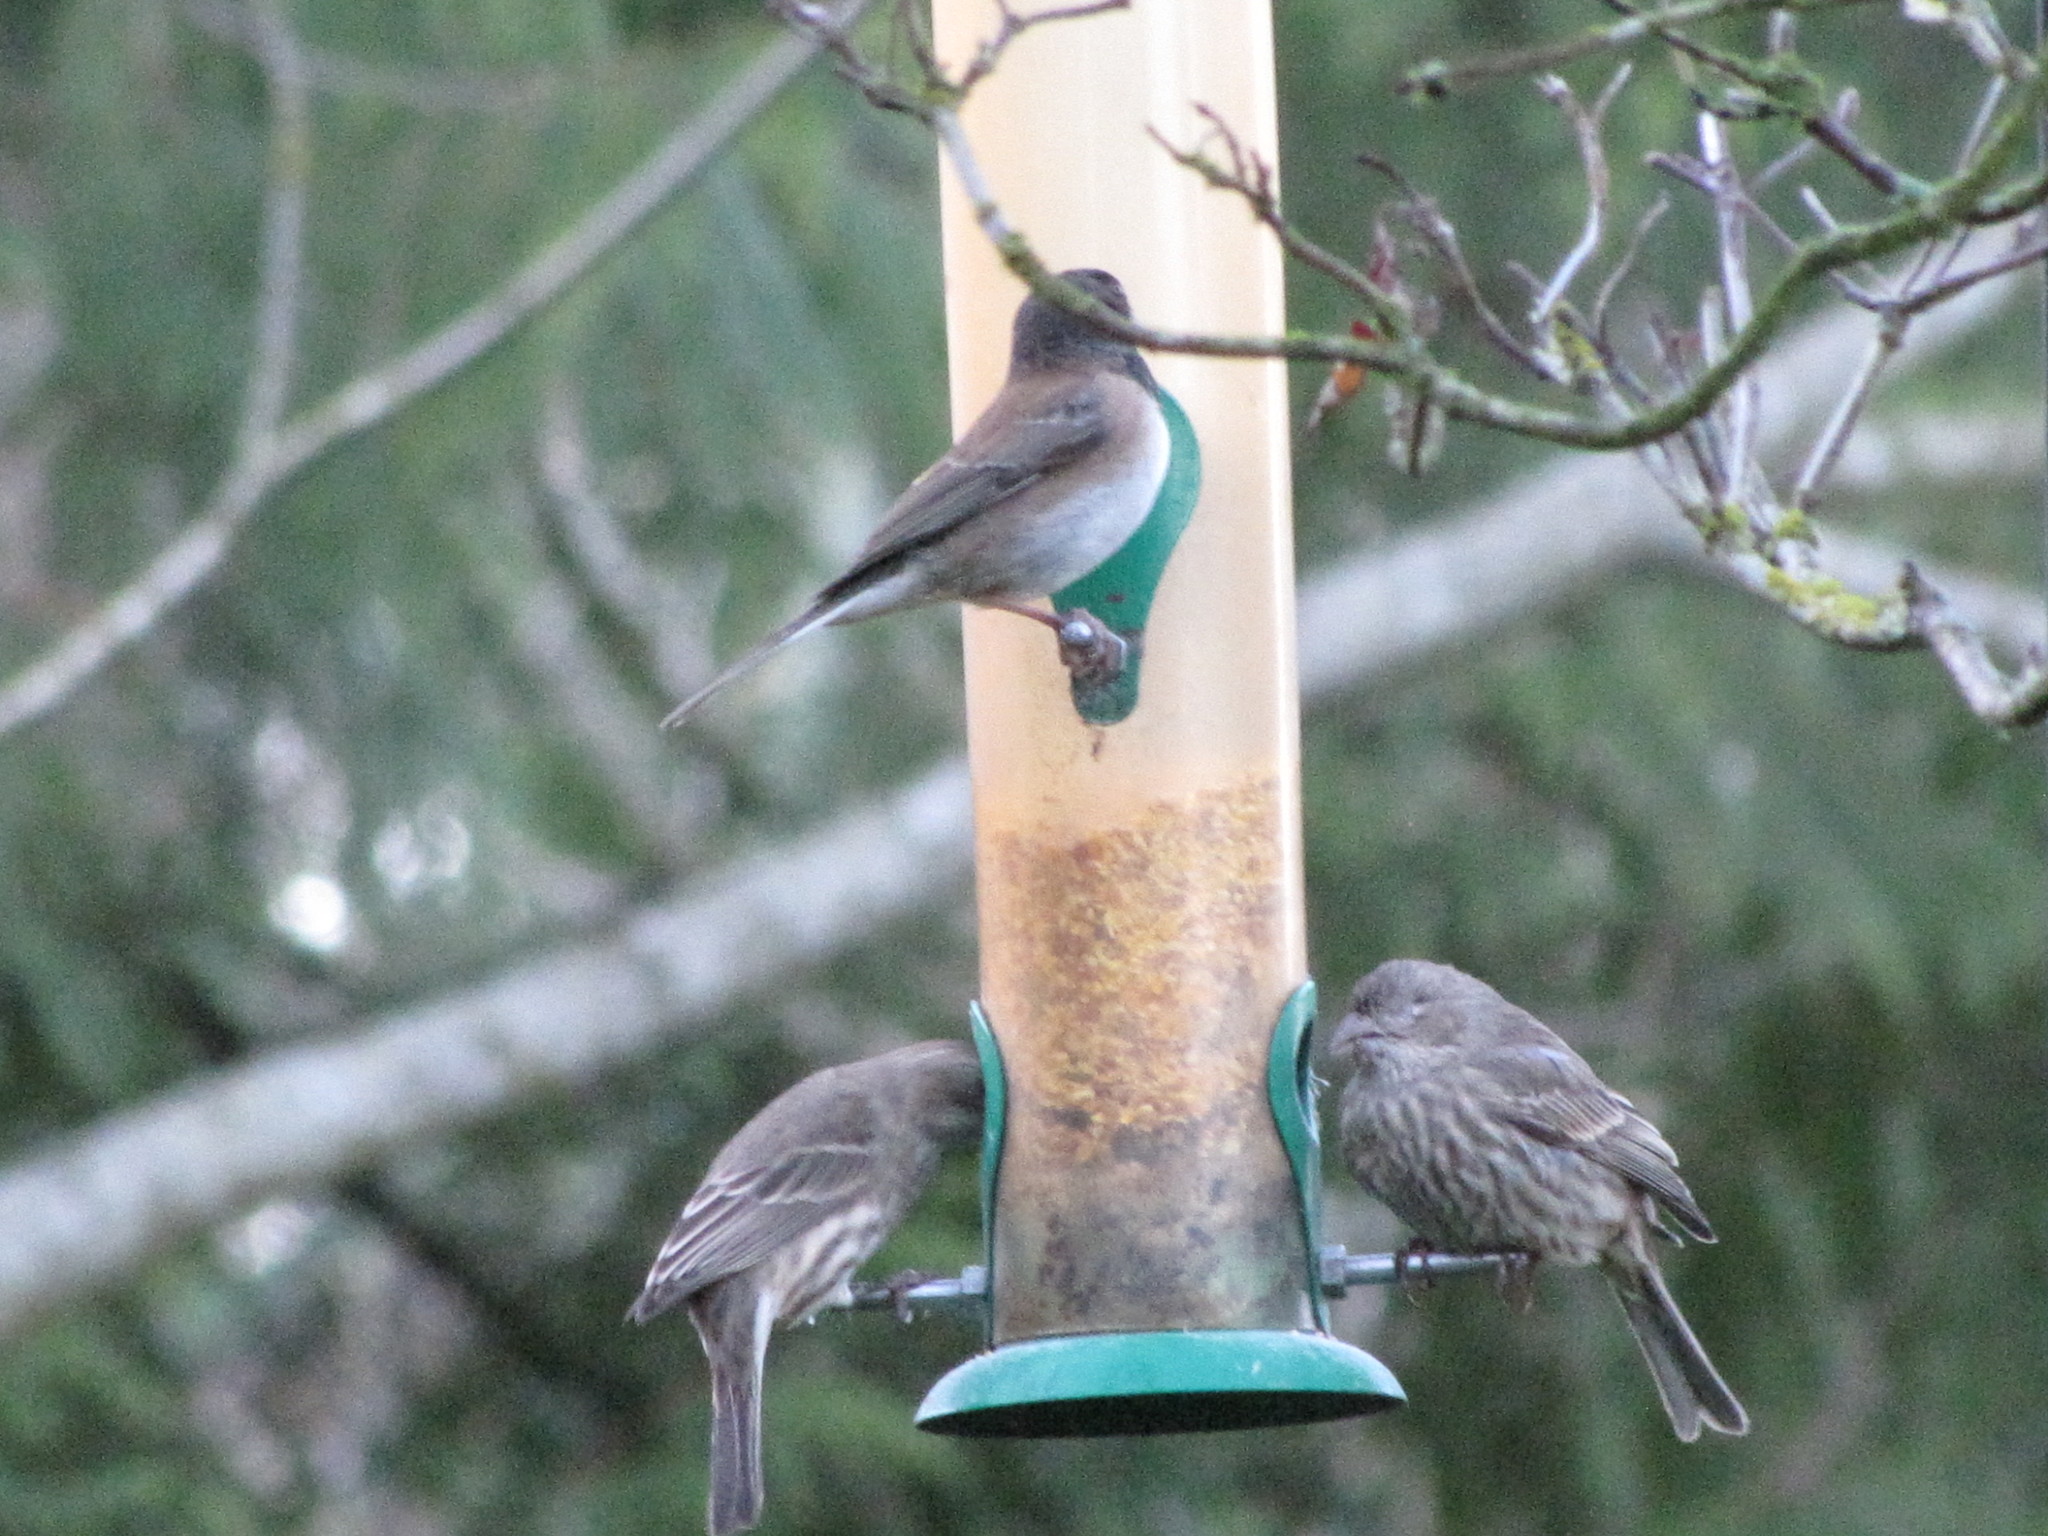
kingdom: Animalia
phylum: Chordata
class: Aves
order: Passeriformes
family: Fringillidae
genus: Haemorhous
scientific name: Haemorhous mexicanus
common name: House finch
